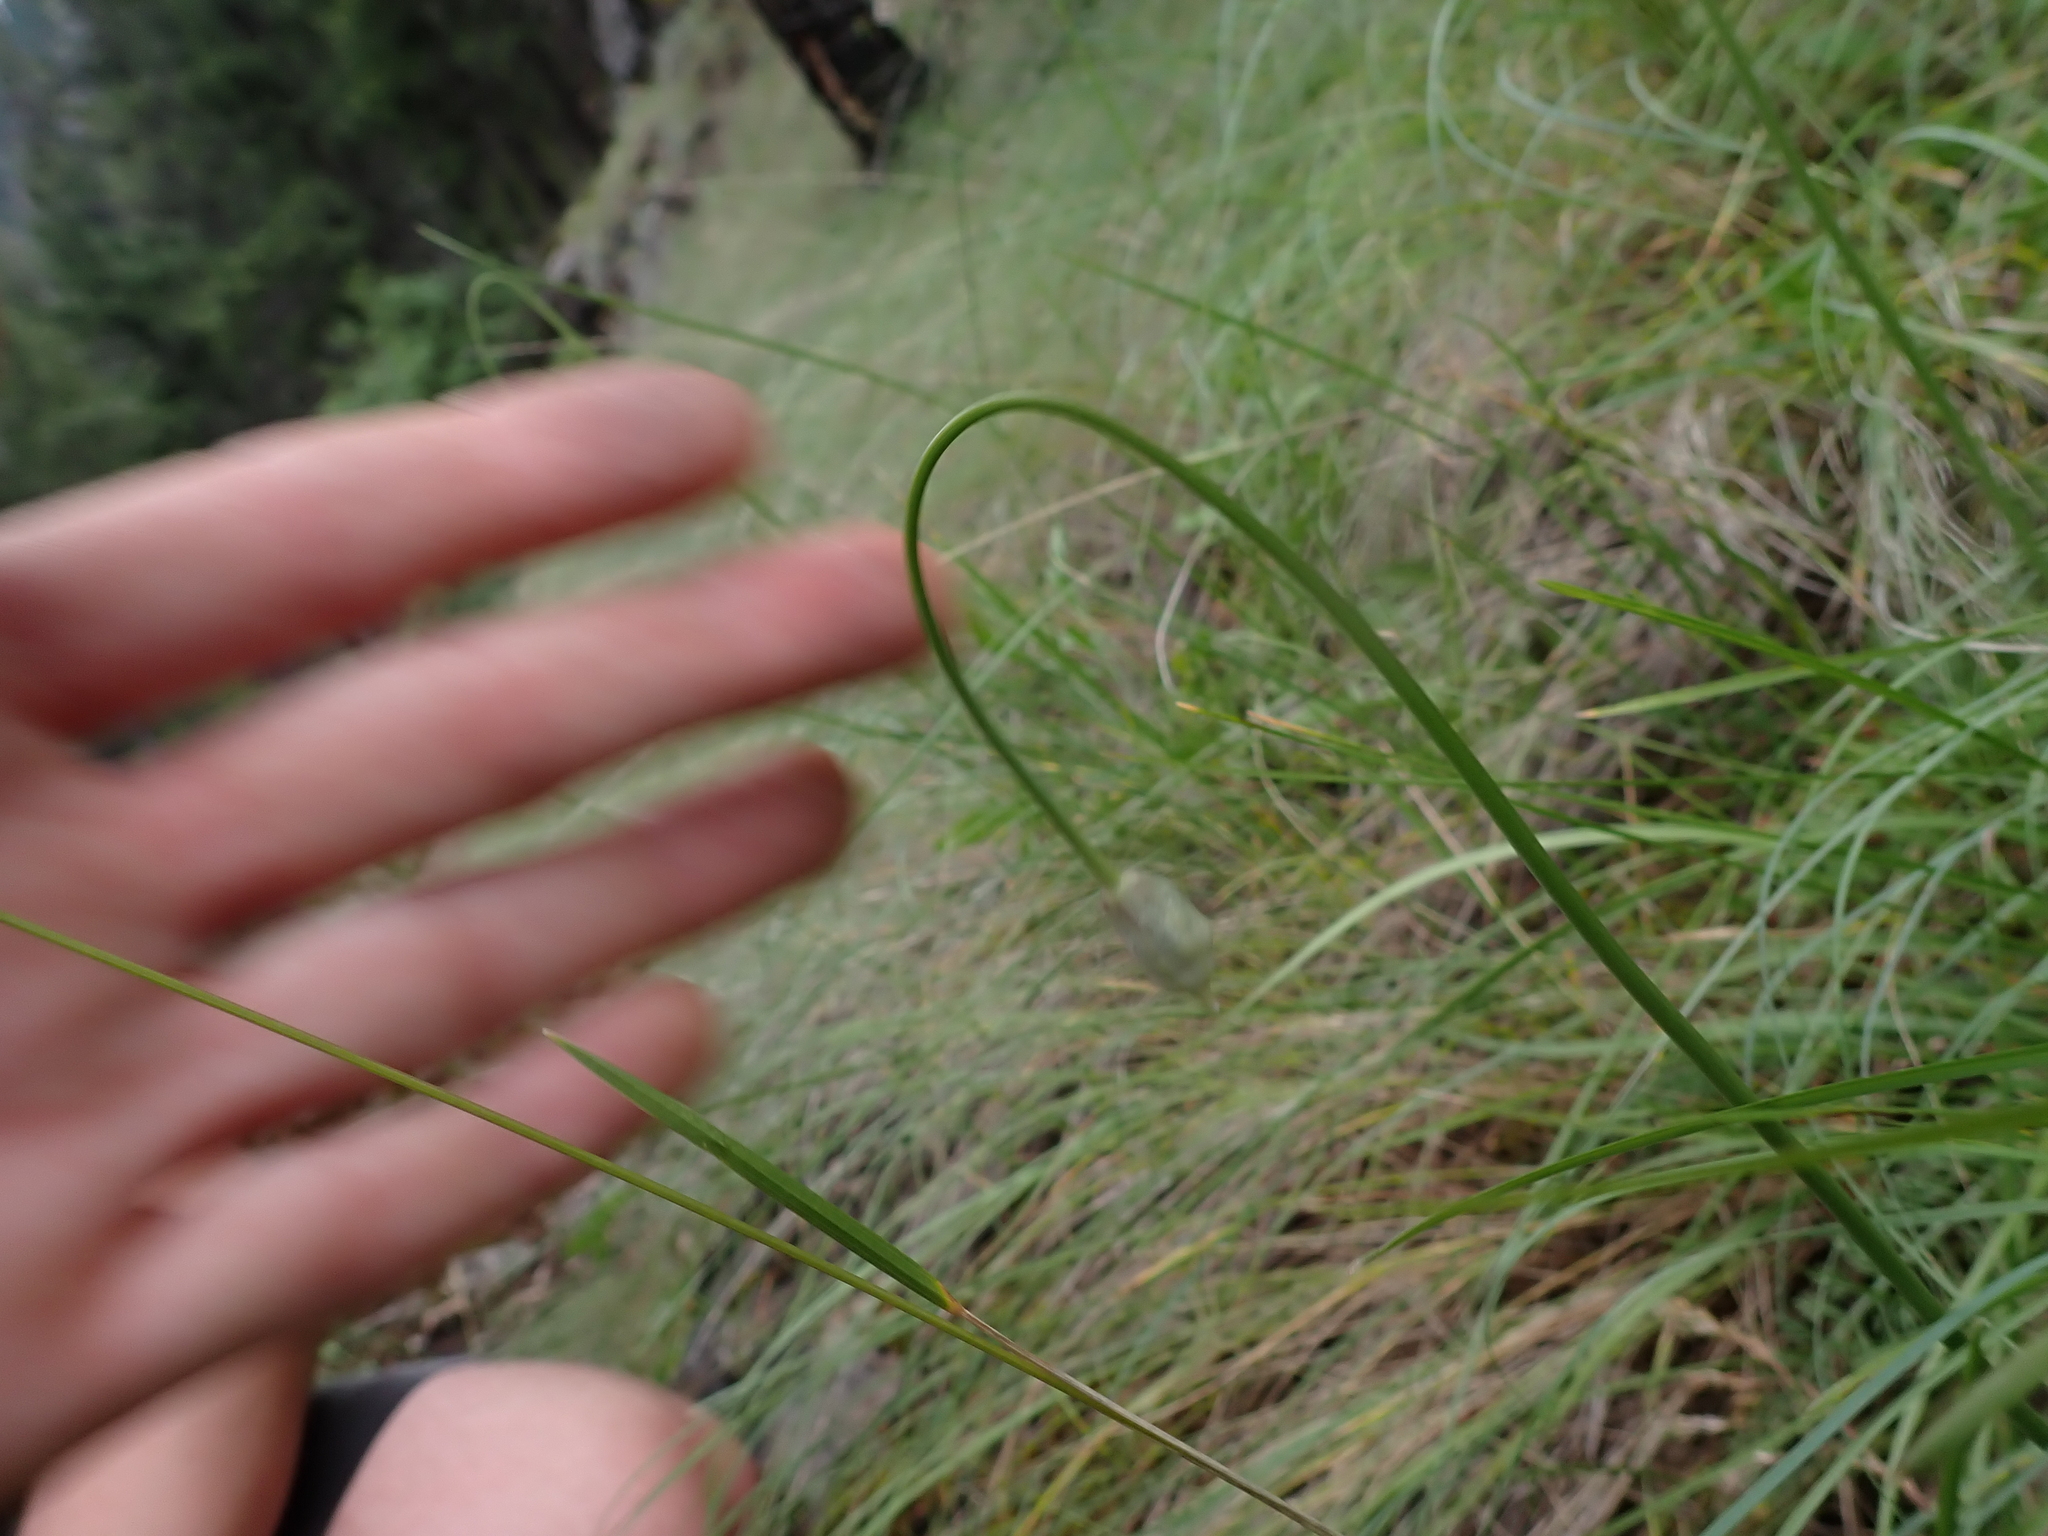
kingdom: Plantae
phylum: Tracheophyta
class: Liliopsida
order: Asparagales
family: Amaryllidaceae
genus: Allium
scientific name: Allium cernuum
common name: Nodding onion
